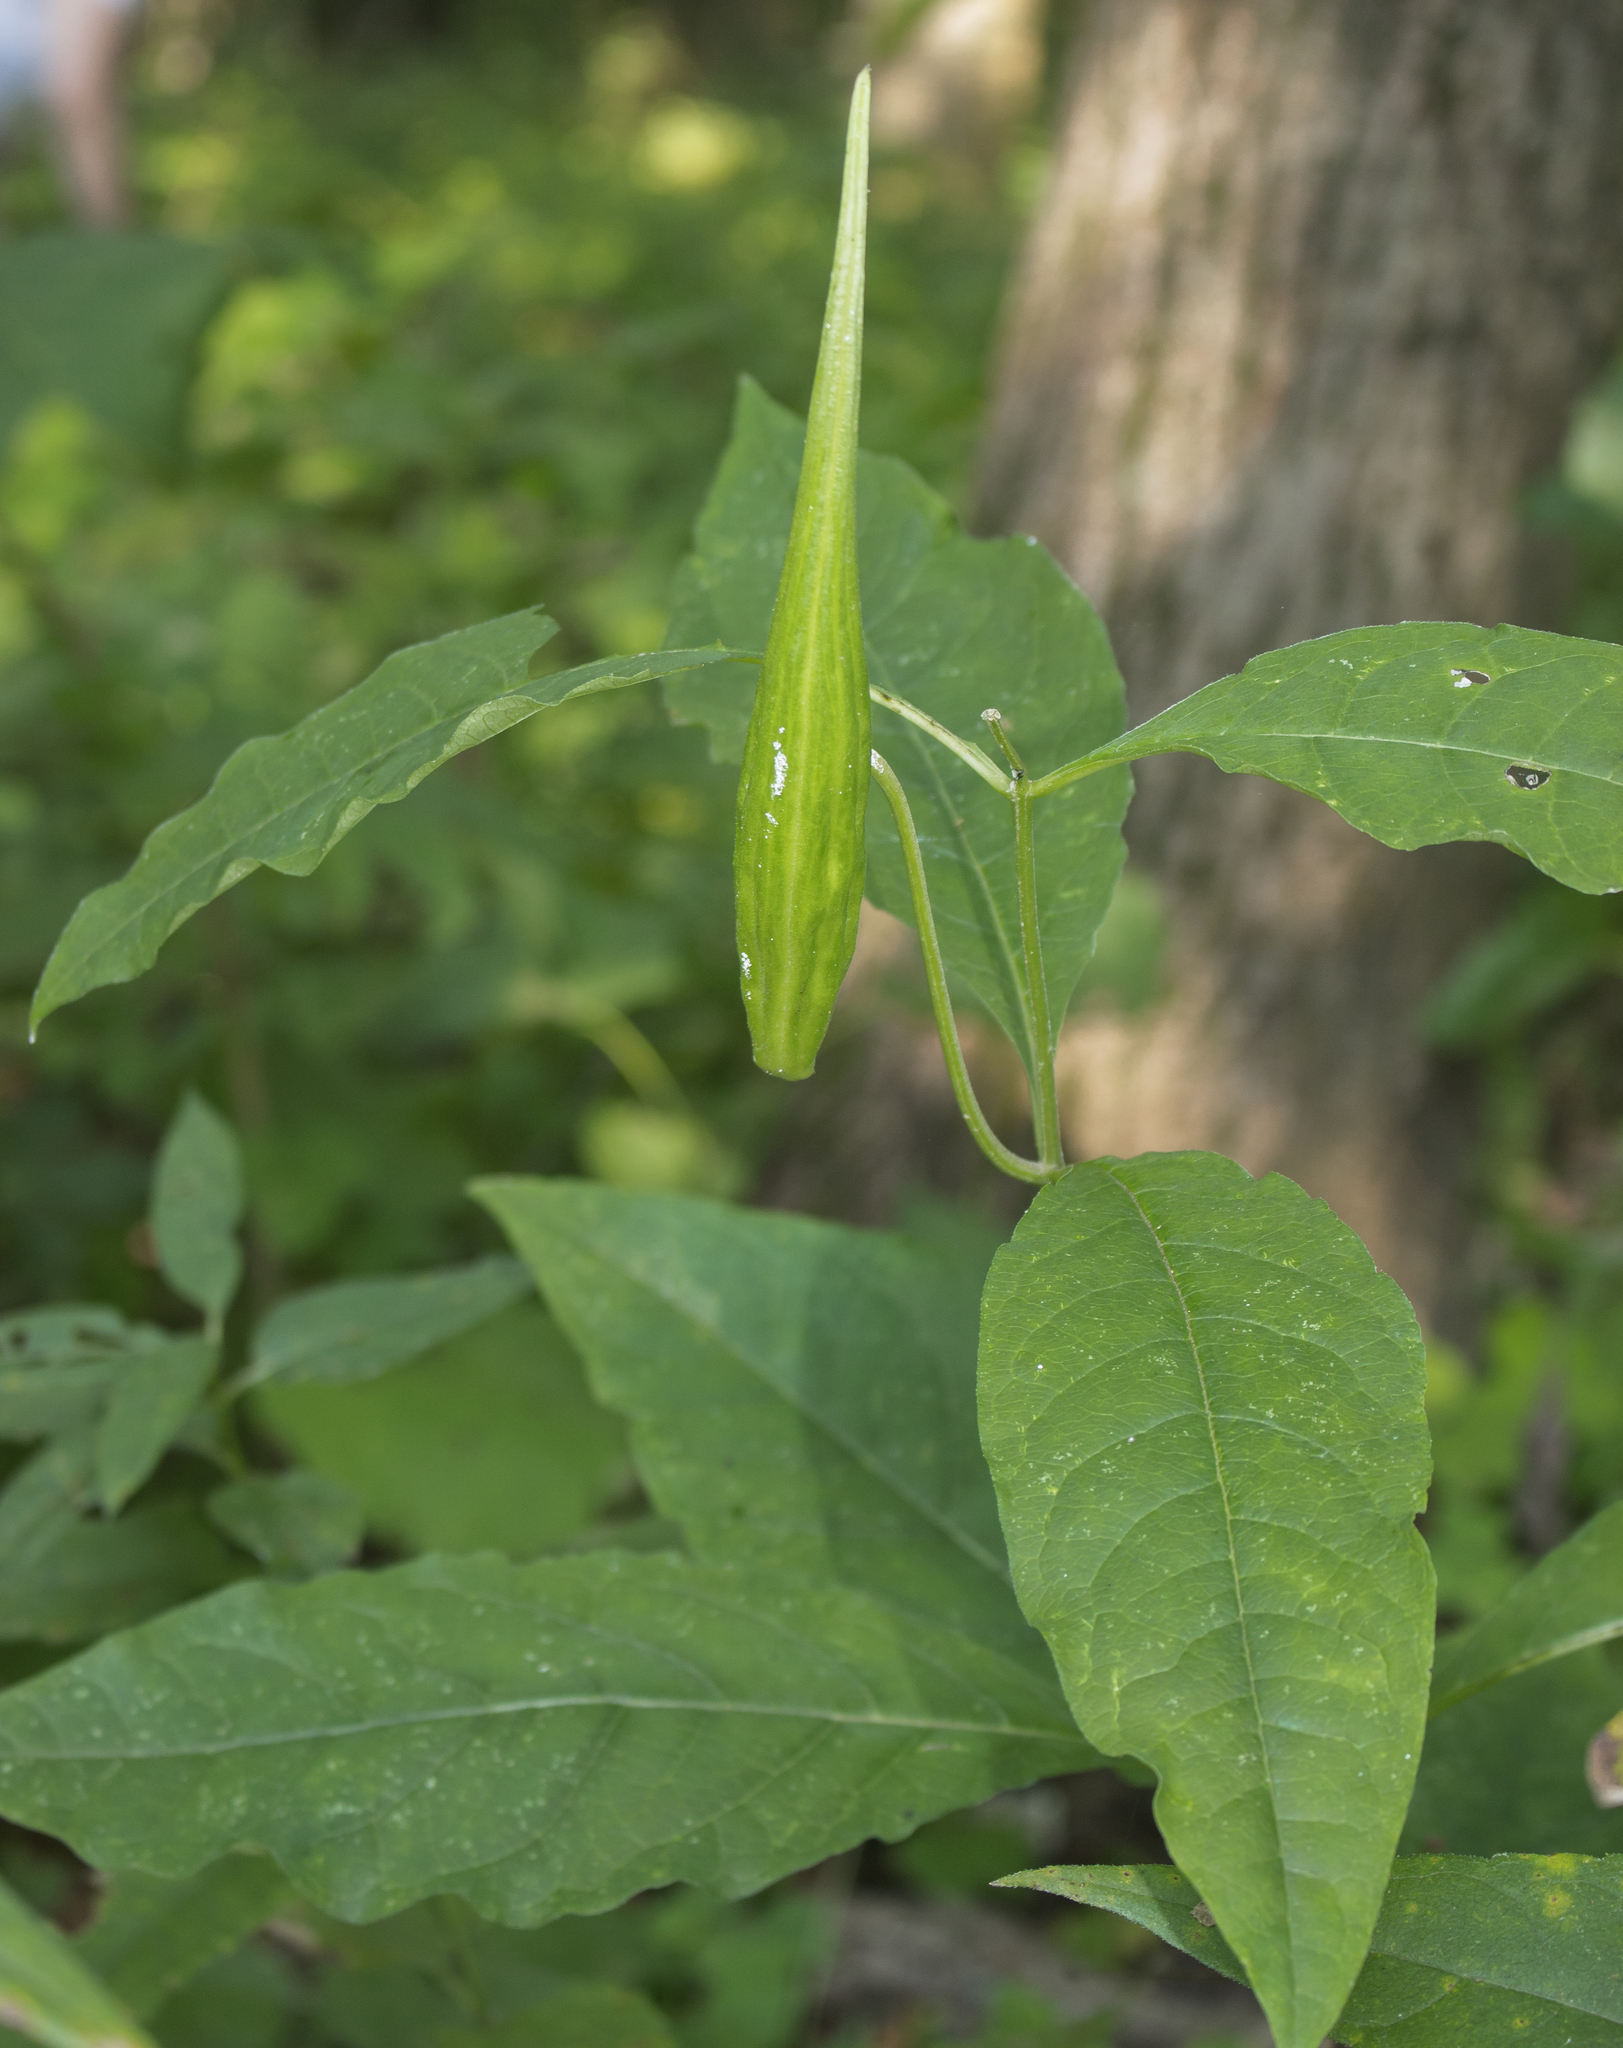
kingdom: Plantae
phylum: Tracheophyta
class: Magnoliopsida
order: Gentianales
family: Apocynaceae
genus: Asclepias
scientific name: Asclepias exaltata
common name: Poke milkweed
